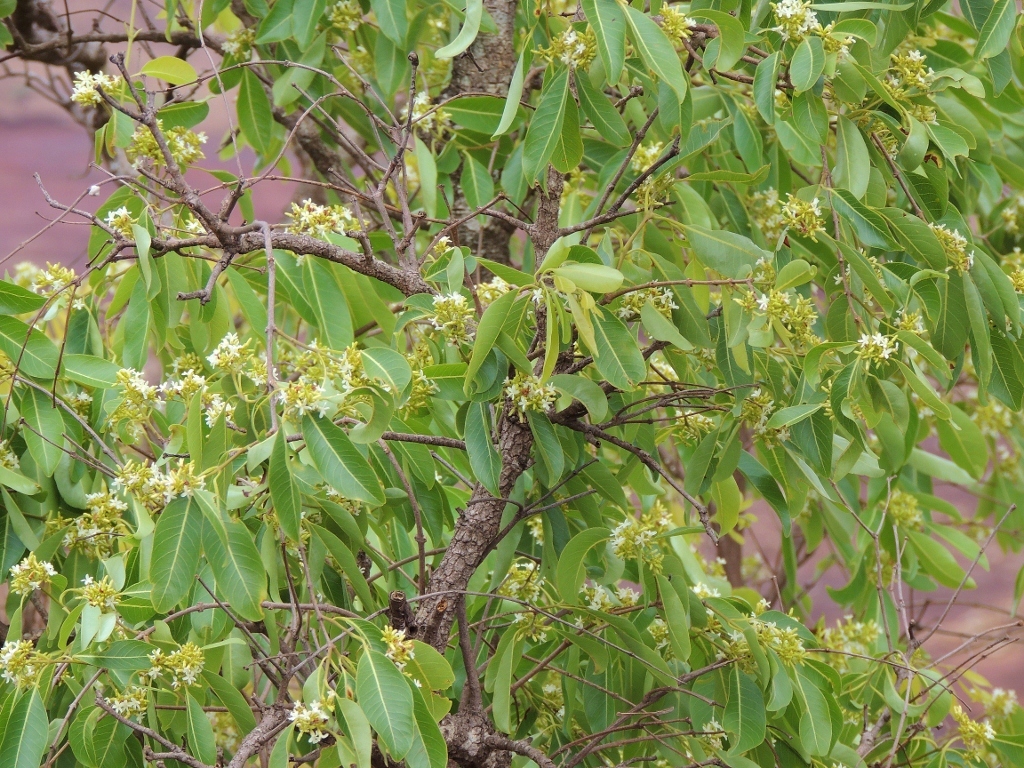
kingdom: Plantae
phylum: Tracheophyta
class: Magnoliopsida
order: Gentianales
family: Apocynaceae
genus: Diplorhynchus
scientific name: Diplorhynchus condylocarpon
